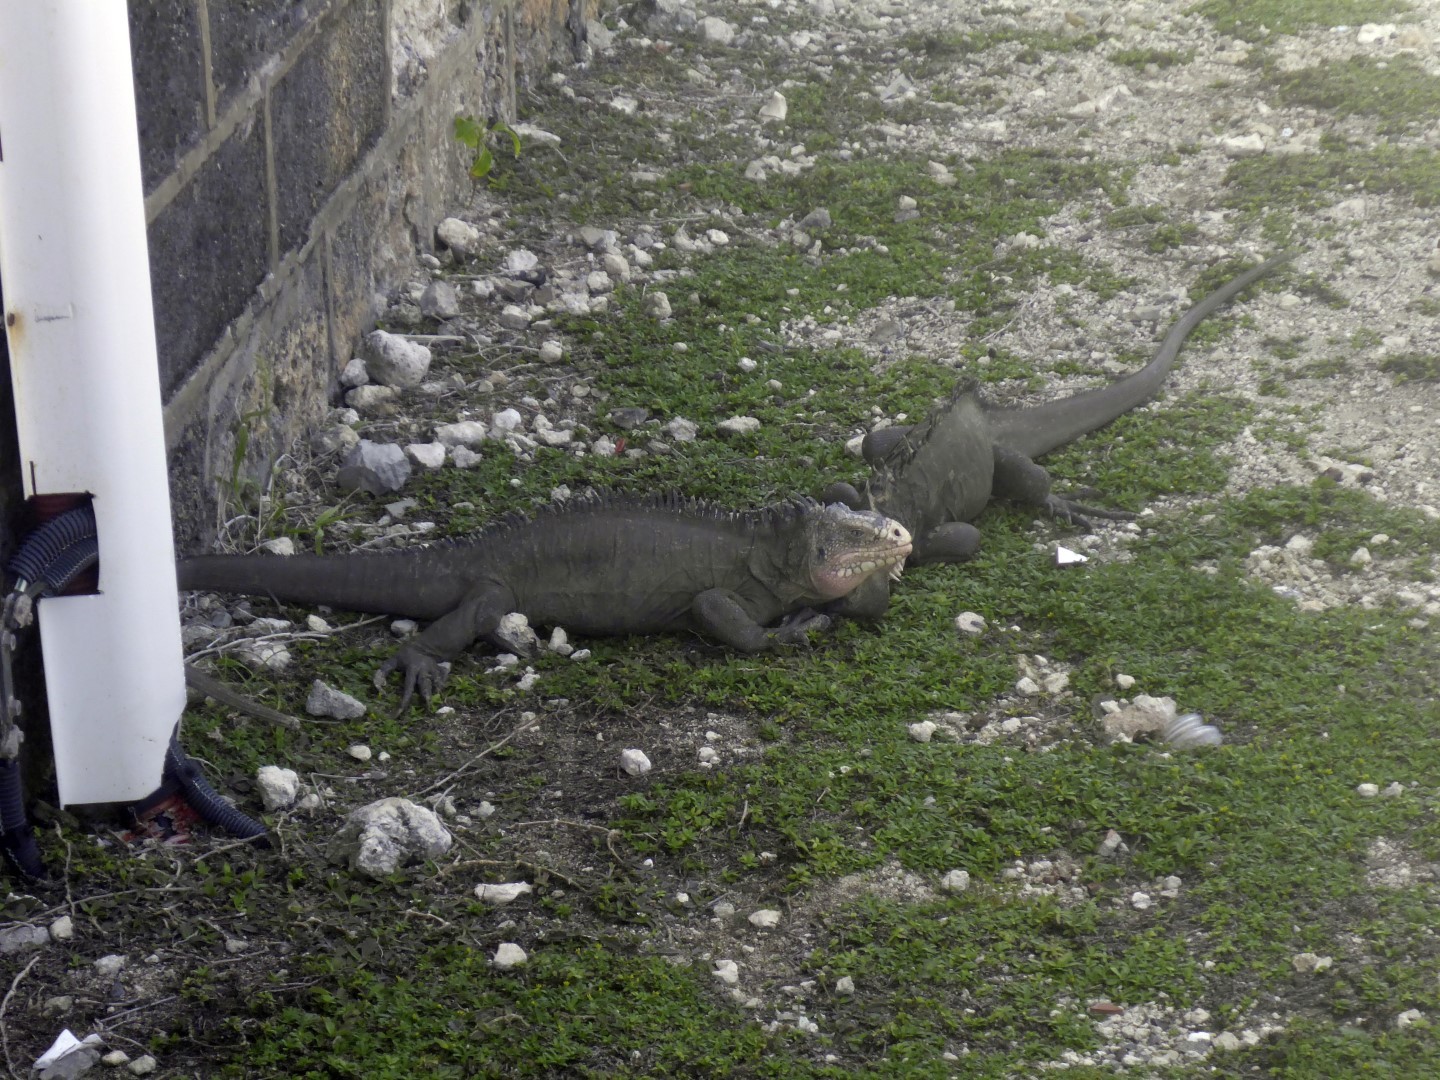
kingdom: Animalia
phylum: Chordata
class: Squamata
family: Iguanidae
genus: Iguana
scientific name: Iguana delicatissima
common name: West indian iguana
